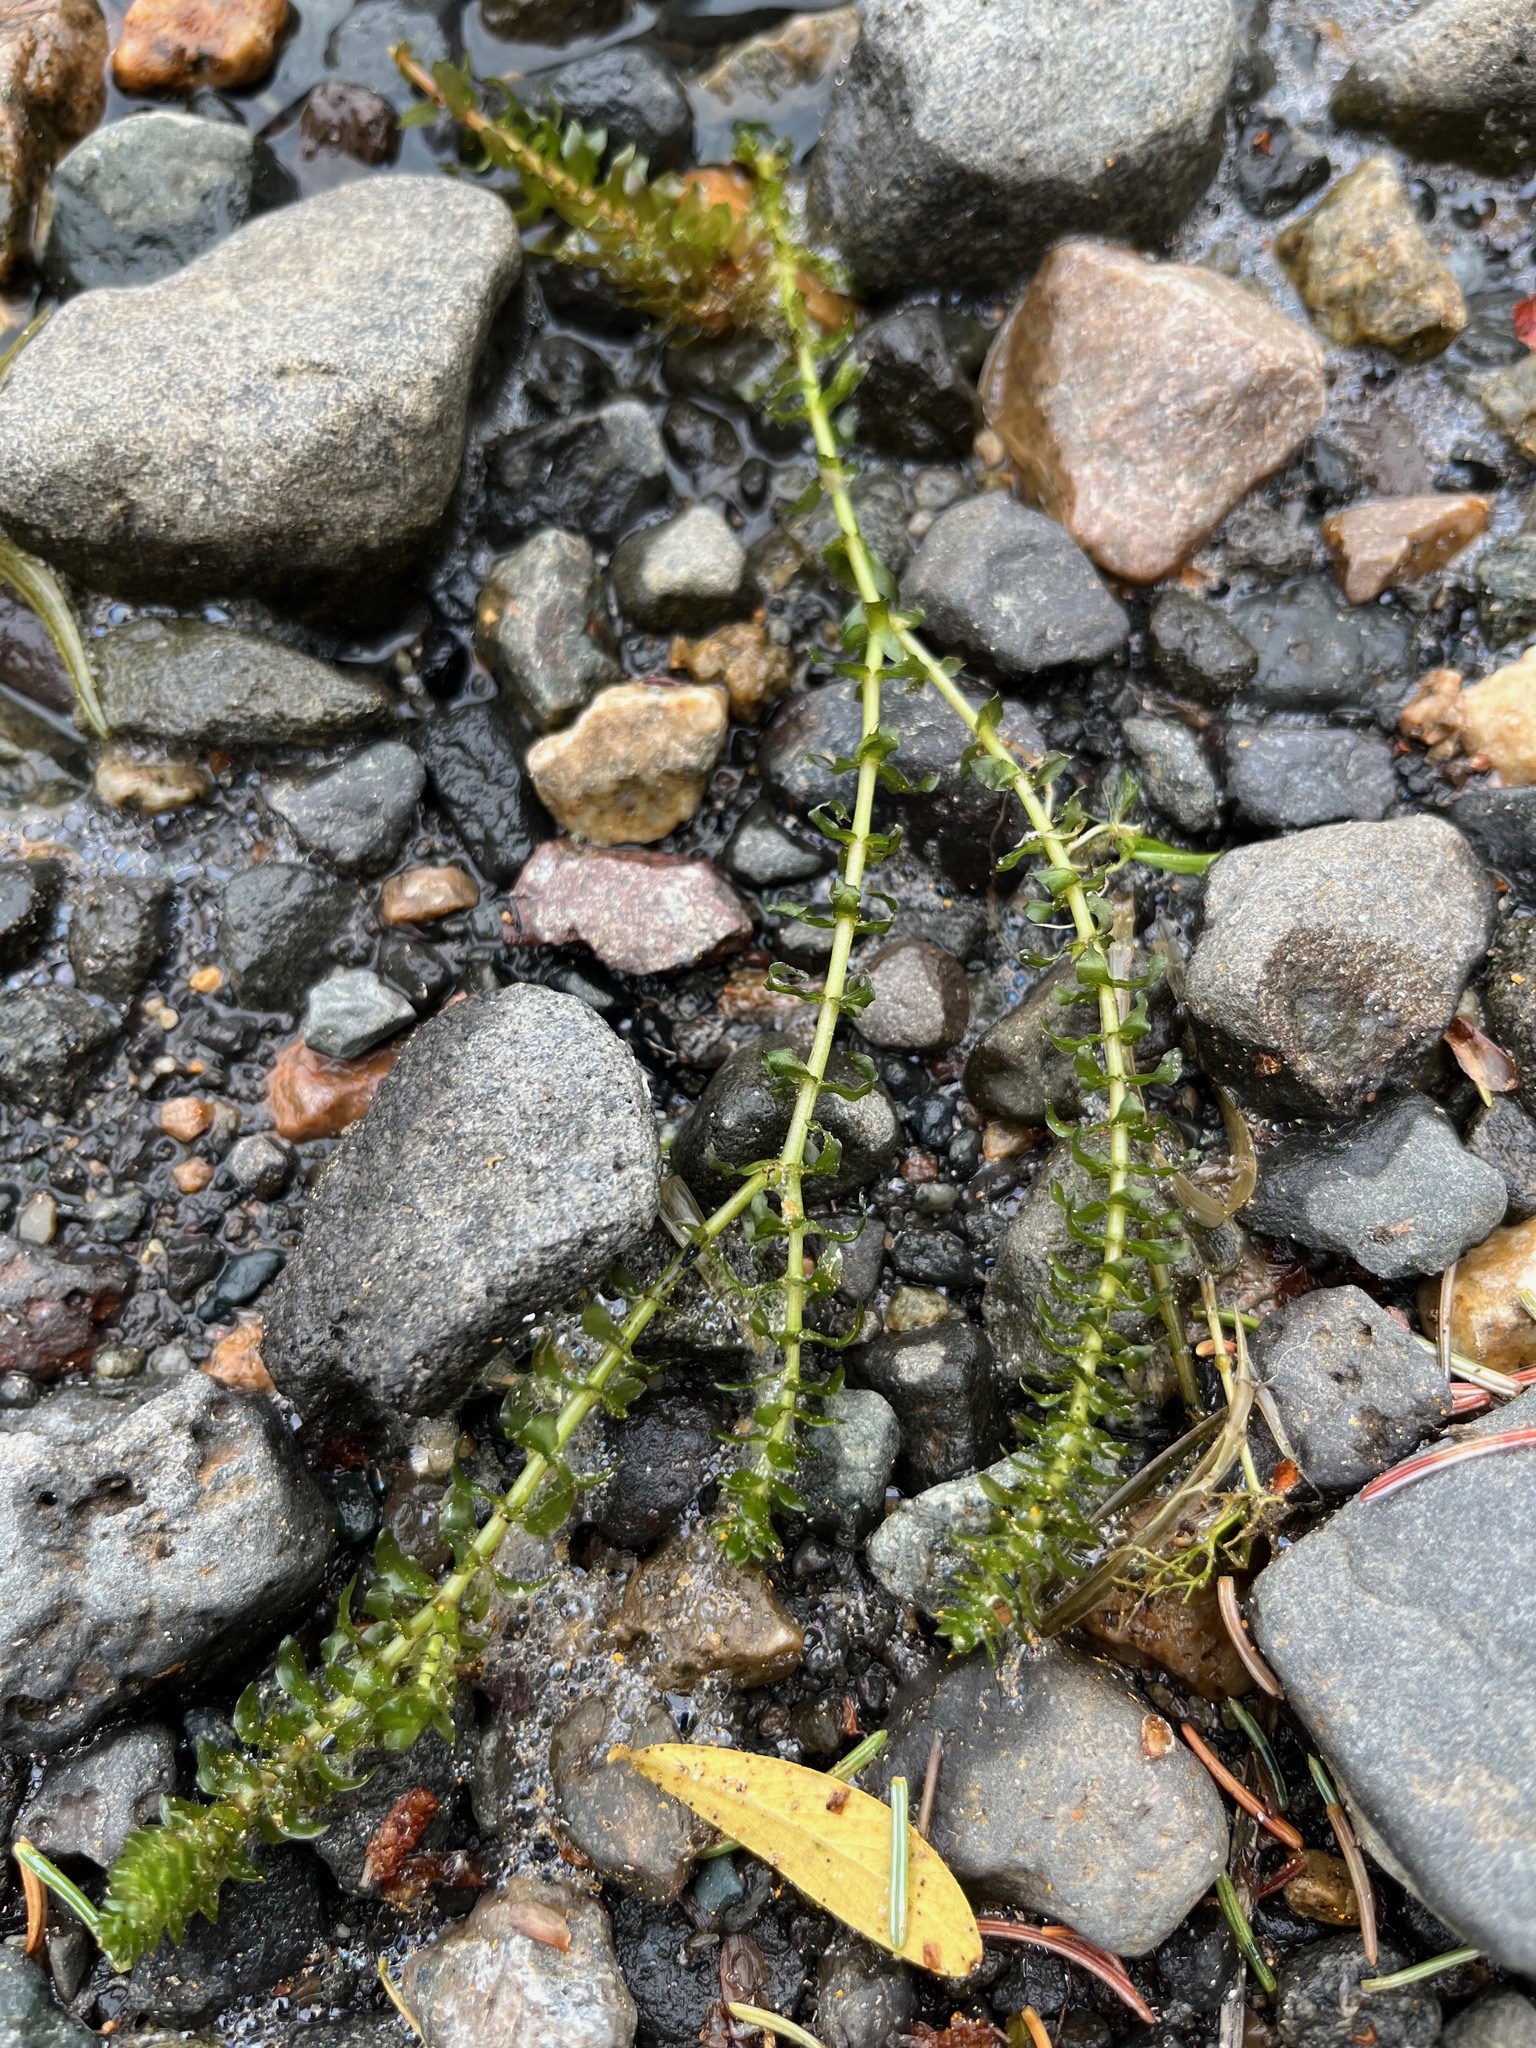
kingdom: Plantae
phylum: Tracheophyta
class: Liliopsida
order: Alismatales
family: Hydrocharitaceae
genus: Elodea
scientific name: Elodea canadensis
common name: Canadian waterweed
